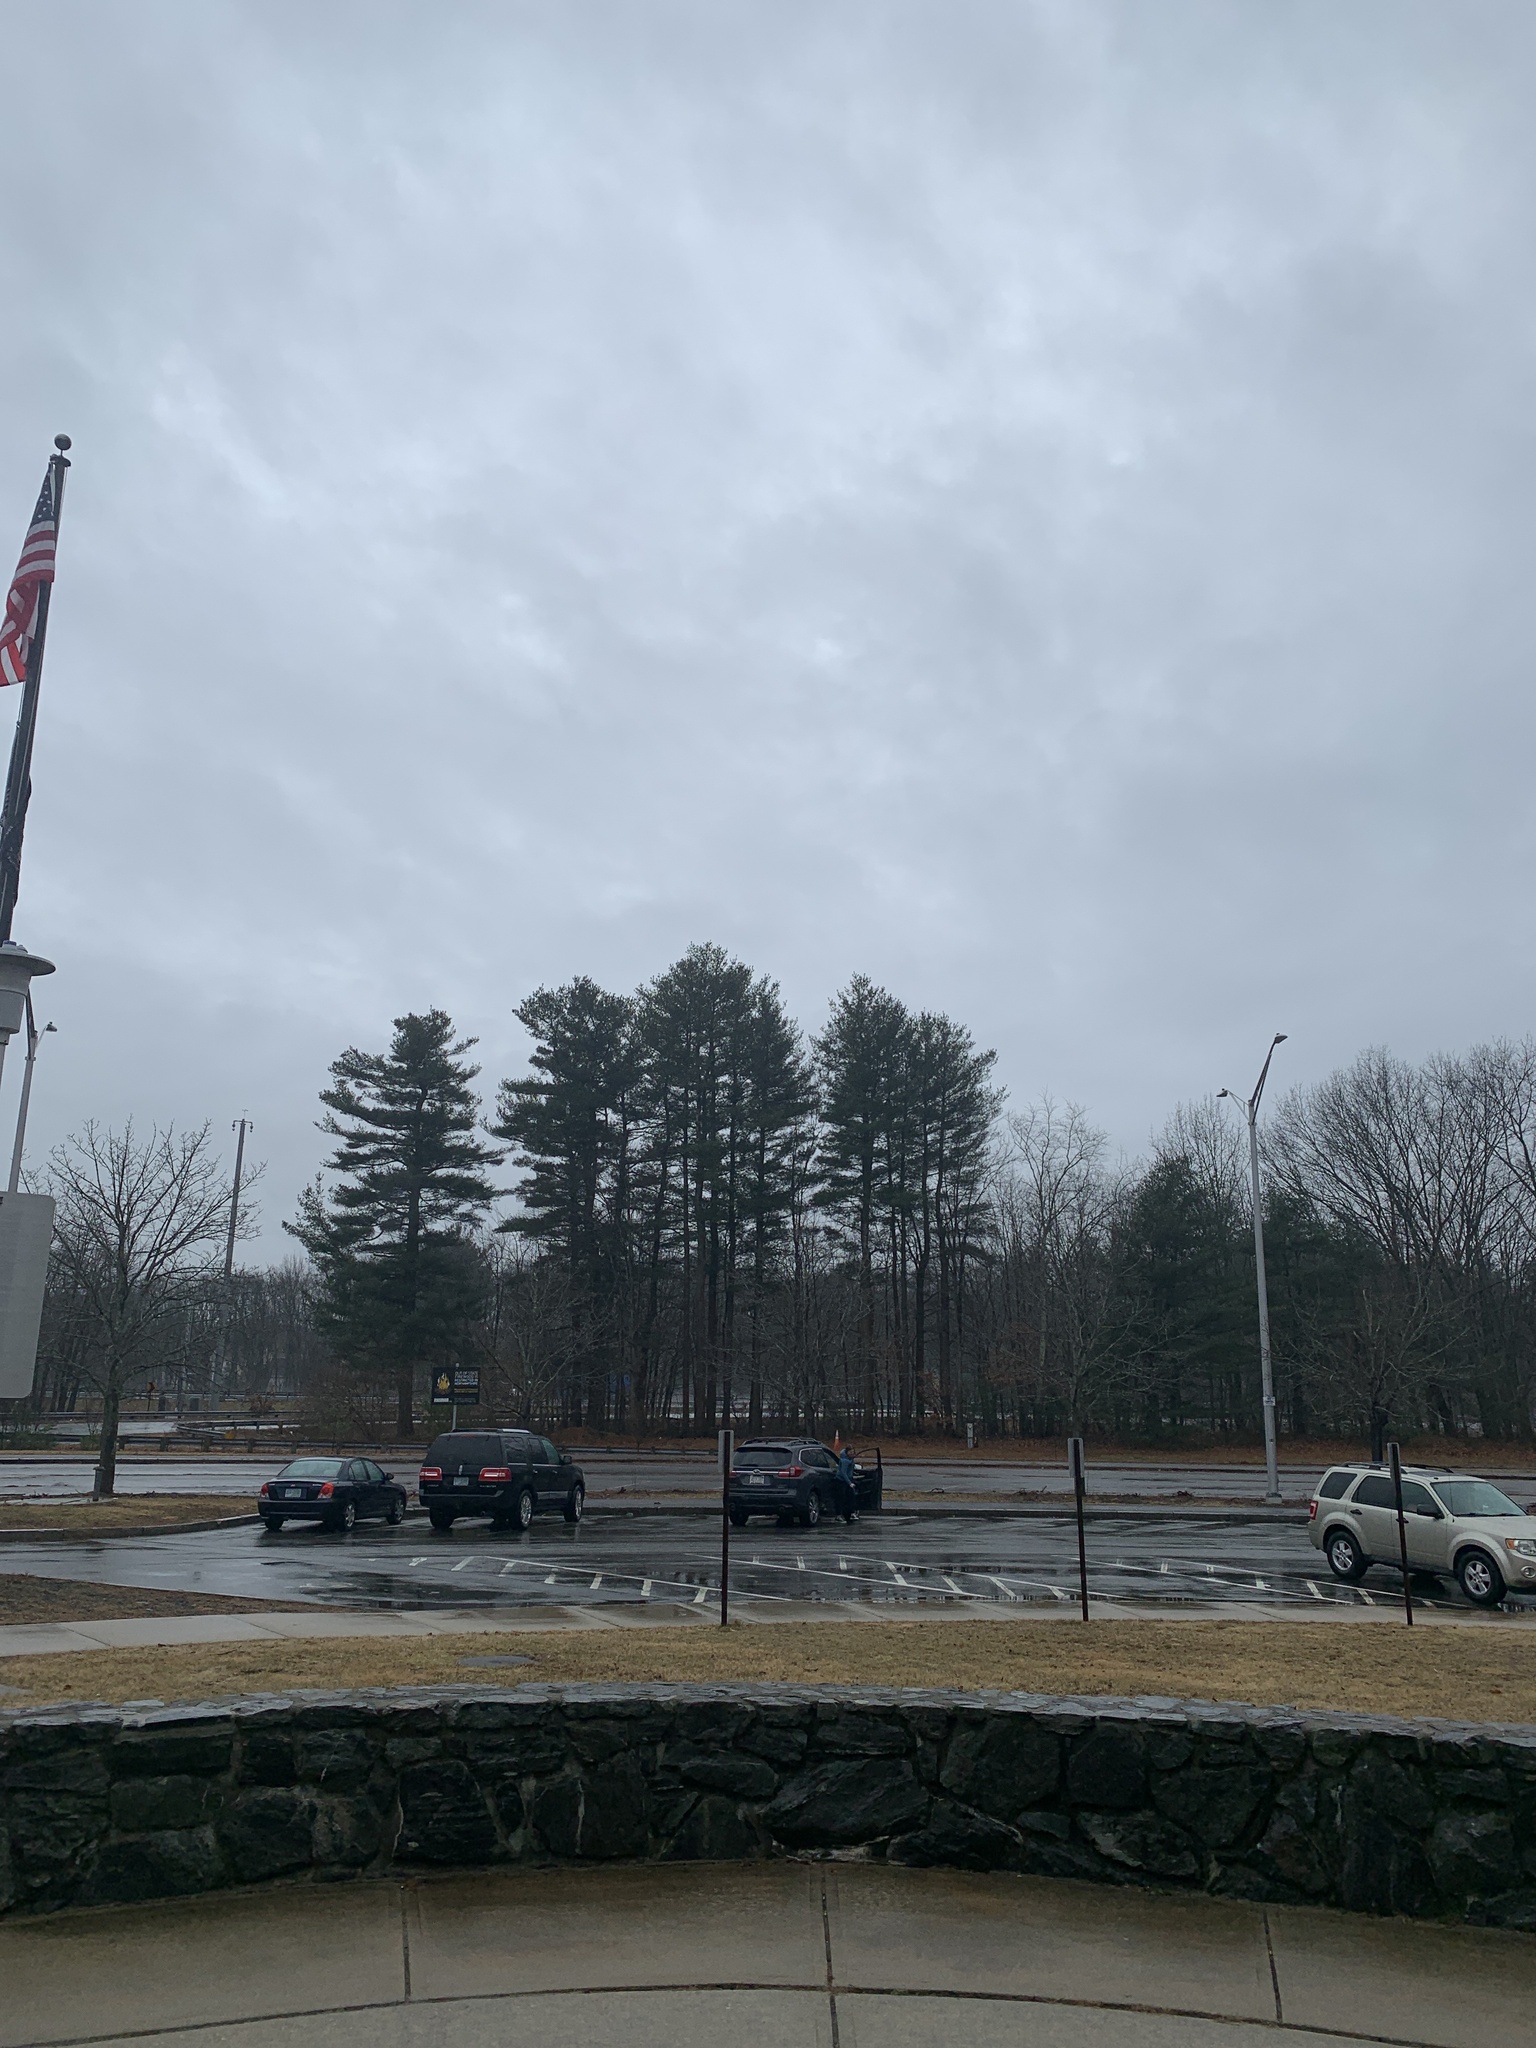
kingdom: Plantae
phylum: Tracheophyta
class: Pinopsida
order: Pinales
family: Pinaceae
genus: Pinus
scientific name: Pinus strobus
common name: Weymouth pine
